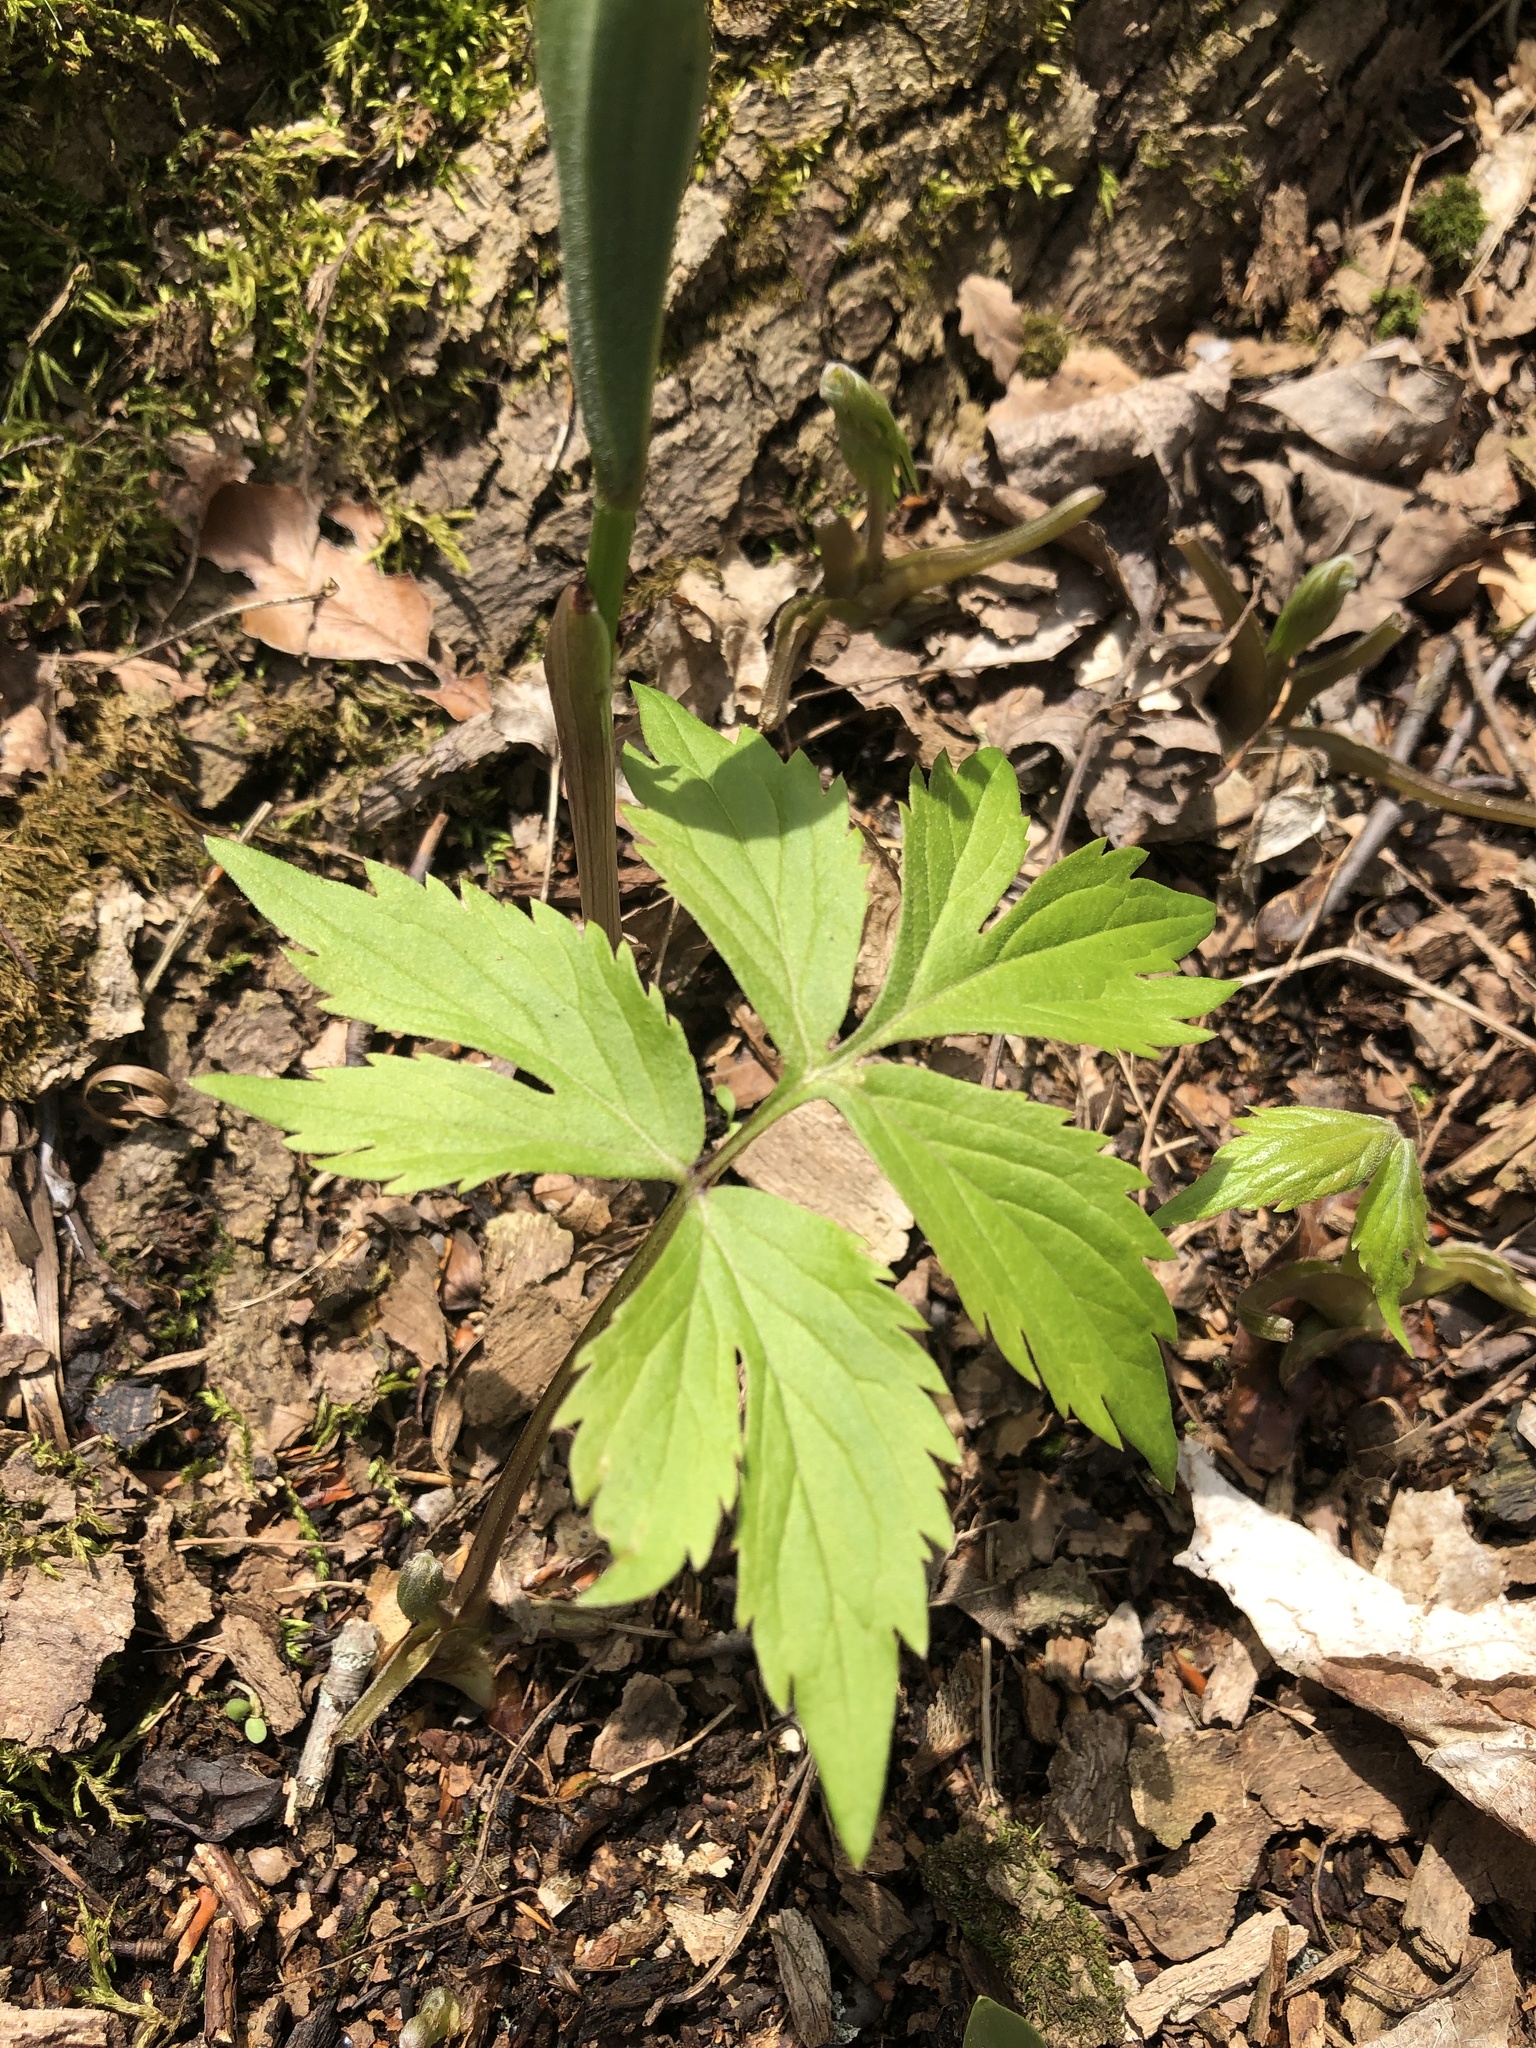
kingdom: Plantae
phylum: Tracheophyta
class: Magnoliopsida
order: Boraginales
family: Hydrophyllaceae
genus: Hydrophyllum
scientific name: Hydrophyllum virginianum
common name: Virginia waterleaf
